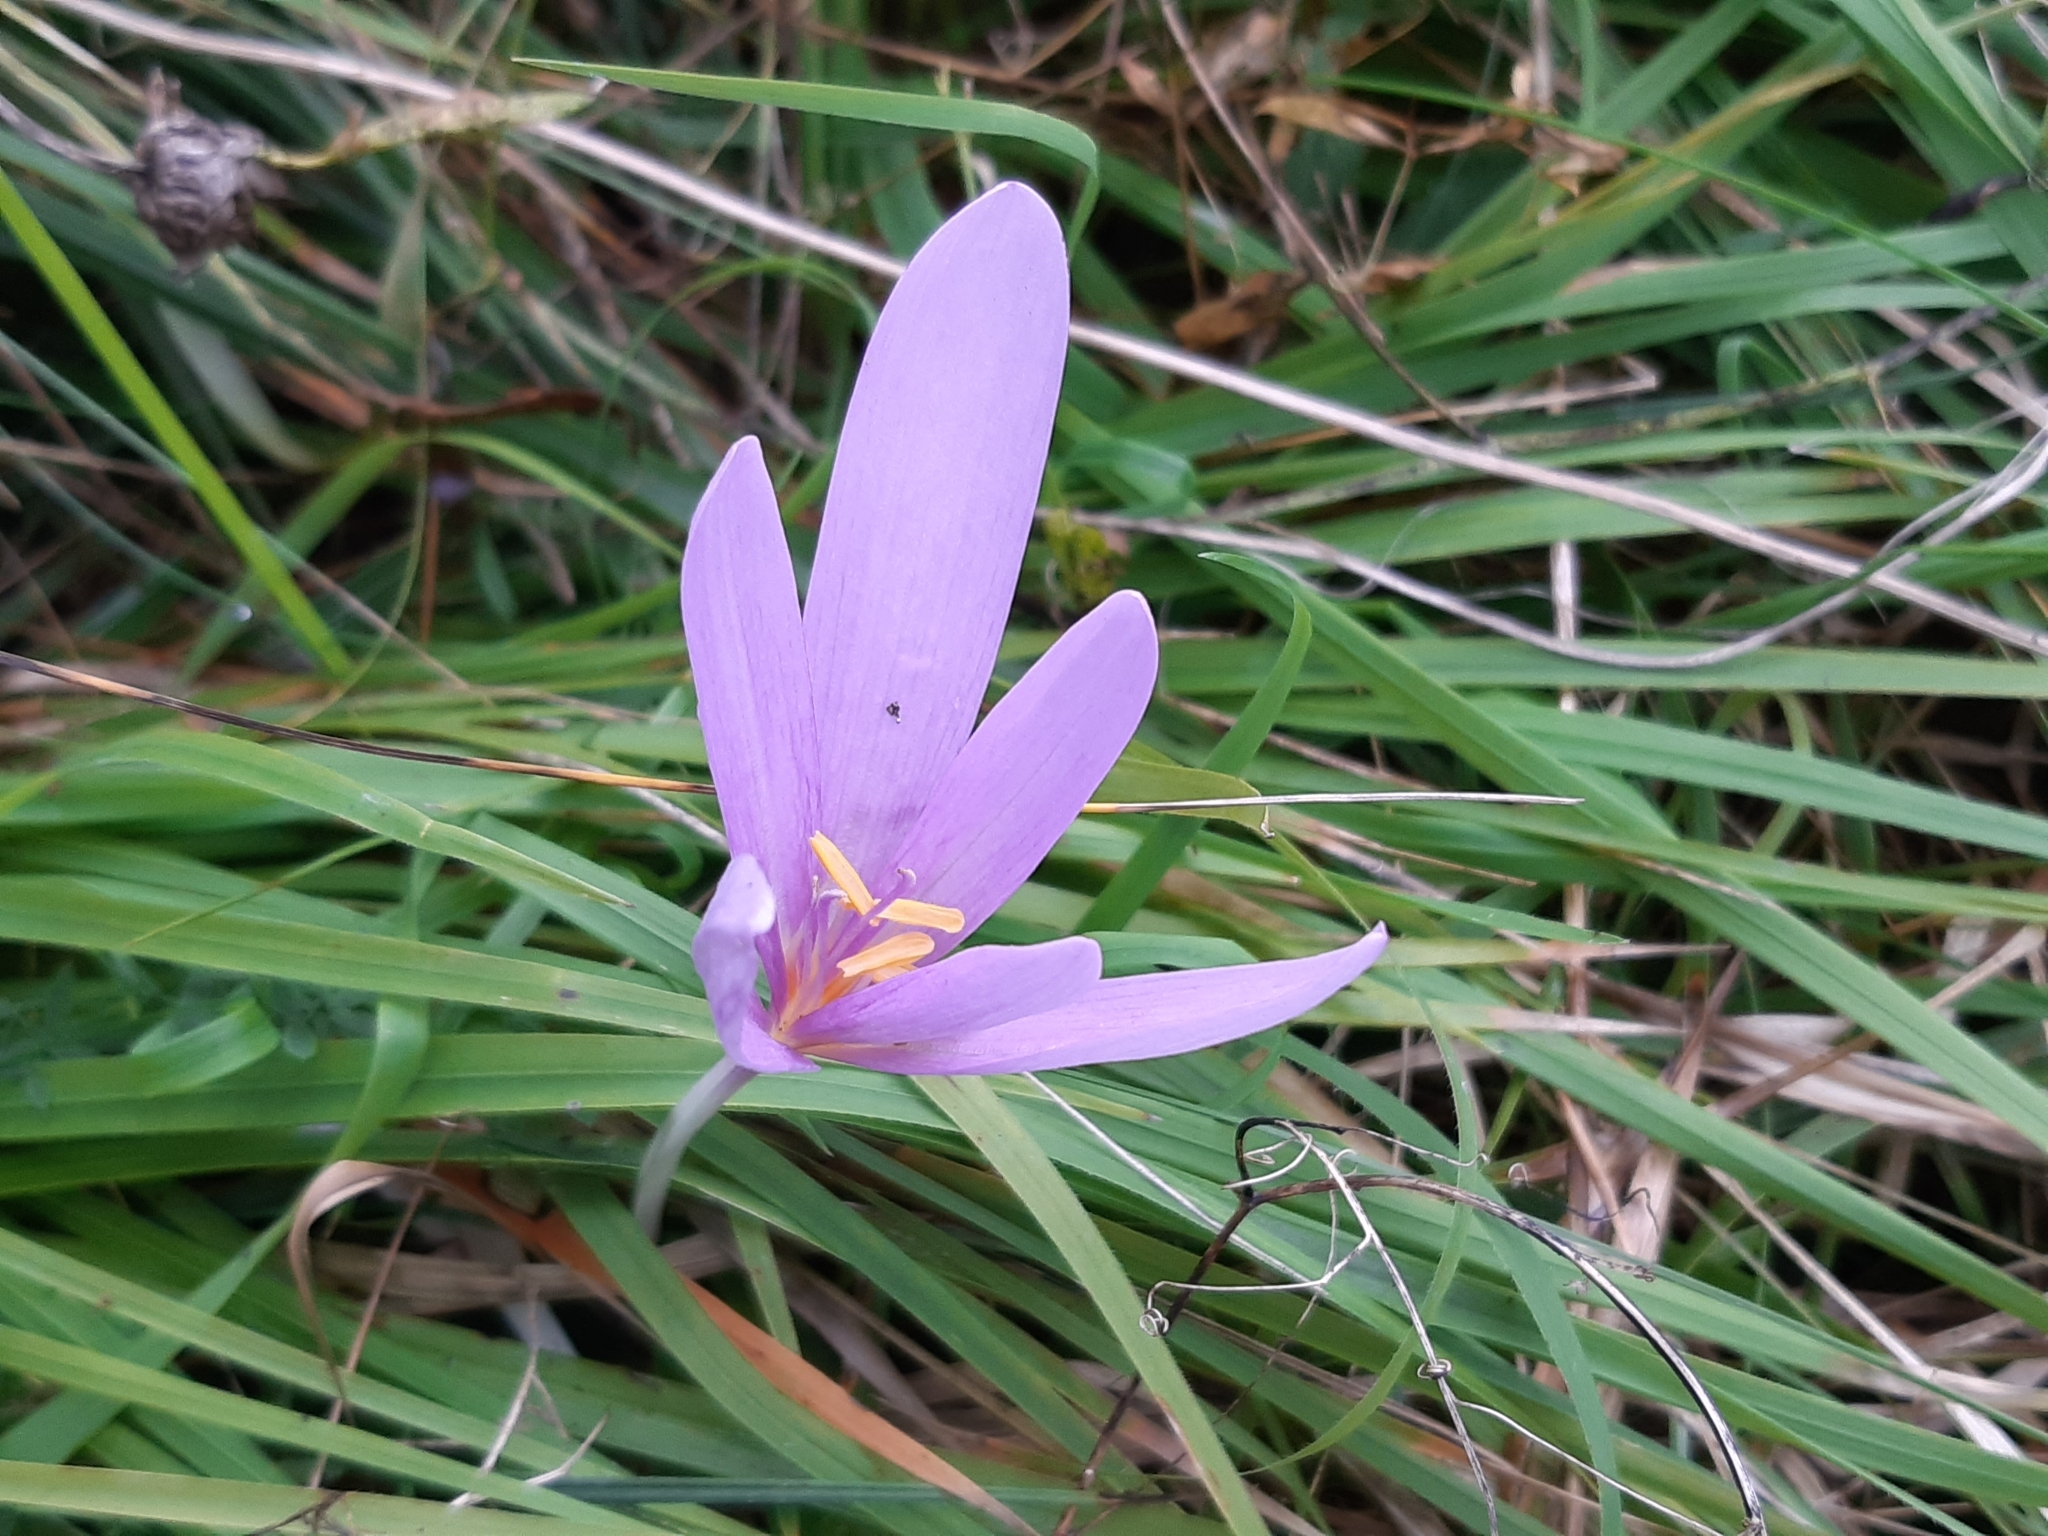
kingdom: Plantae
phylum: Tracheophyta
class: Liliopsida
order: Liliales
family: Colchicaceae
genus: Colchicum
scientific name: Colchicum autumnale
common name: Autumn crocus
